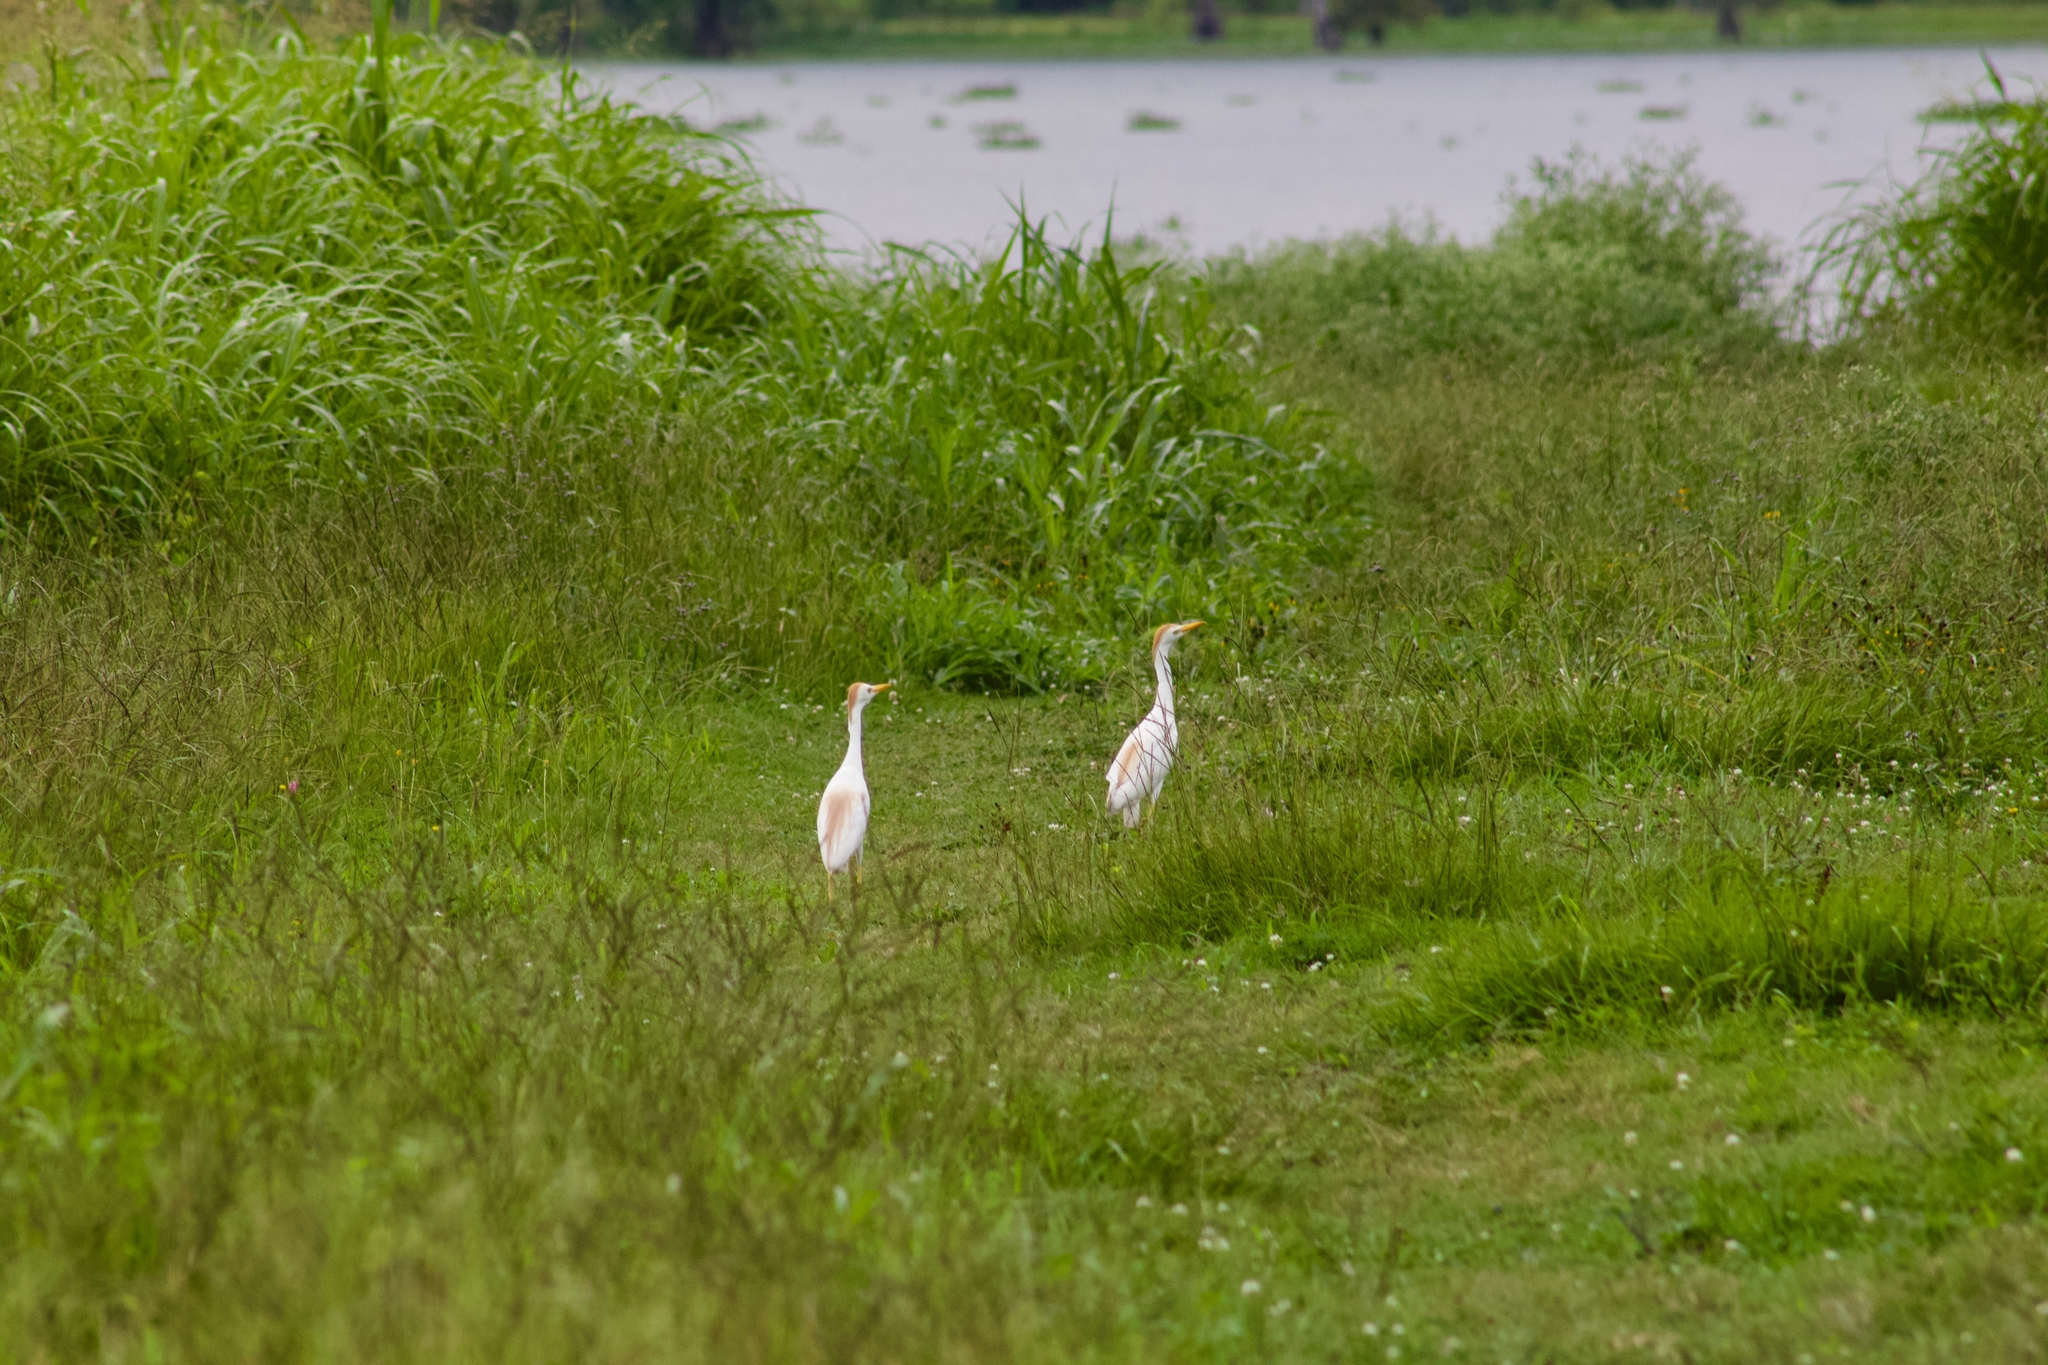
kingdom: Animalia
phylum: Chordata
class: Aves
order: Pelecaniformes
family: Ardeidae
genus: Bubulcus
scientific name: Bubulcus ibis
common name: Cattle egret
